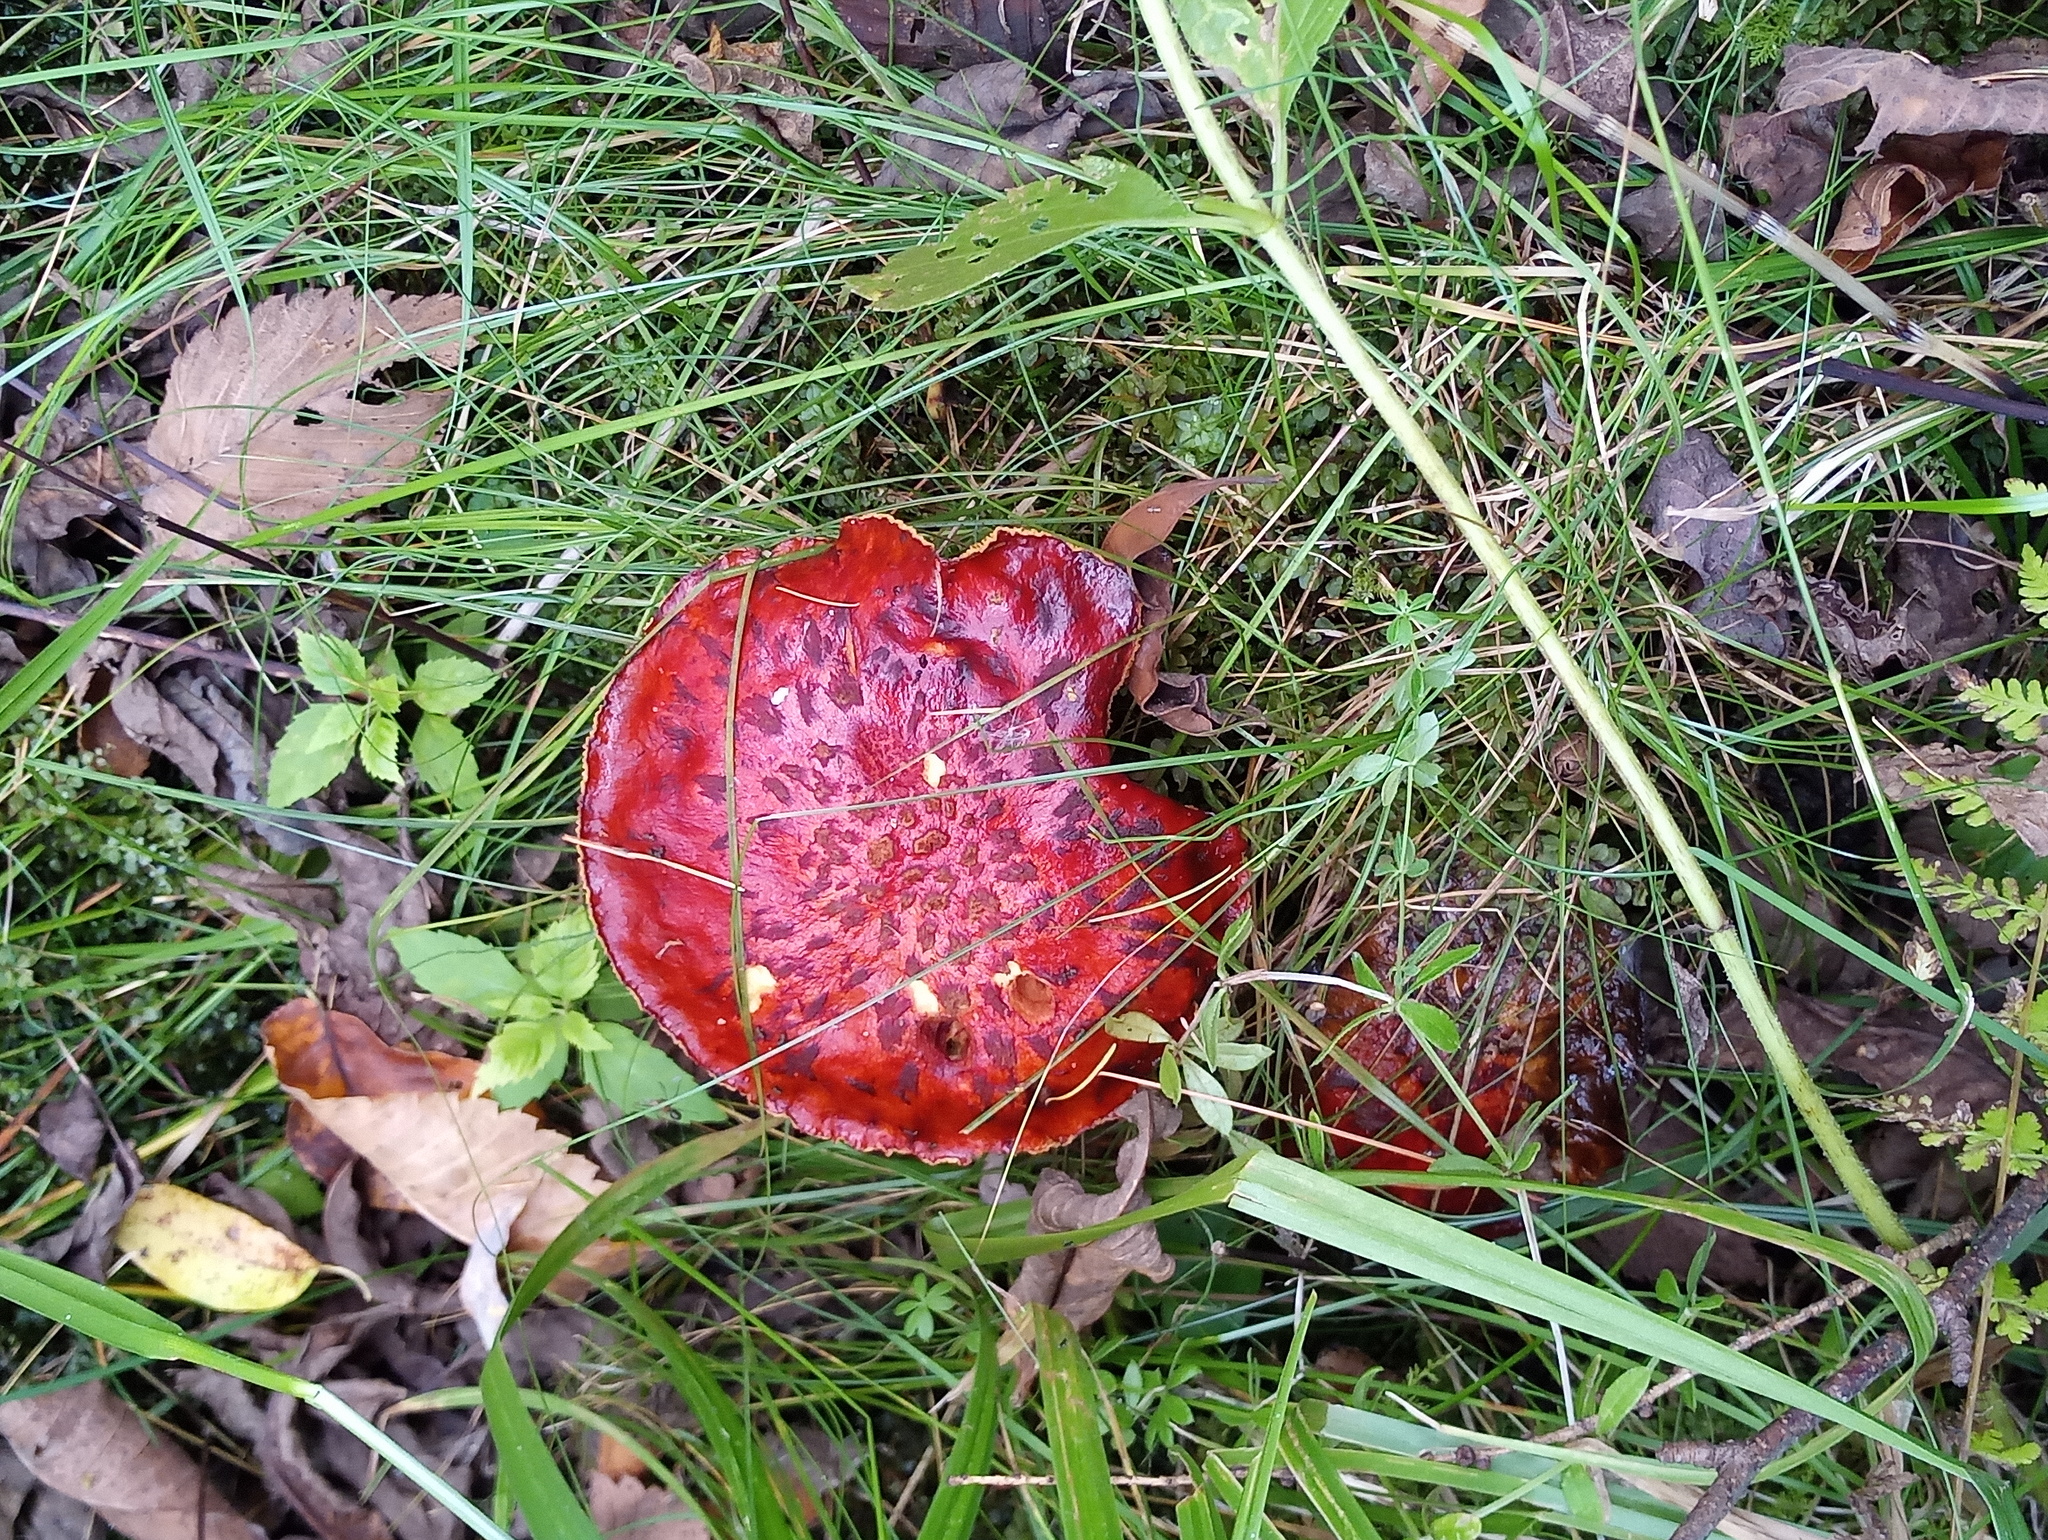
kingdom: Fungi
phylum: Basidiomycota
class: Agaricomycetes
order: Boletales
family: Suillaceae
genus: Boletinus
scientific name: Boletinus spectabilis
